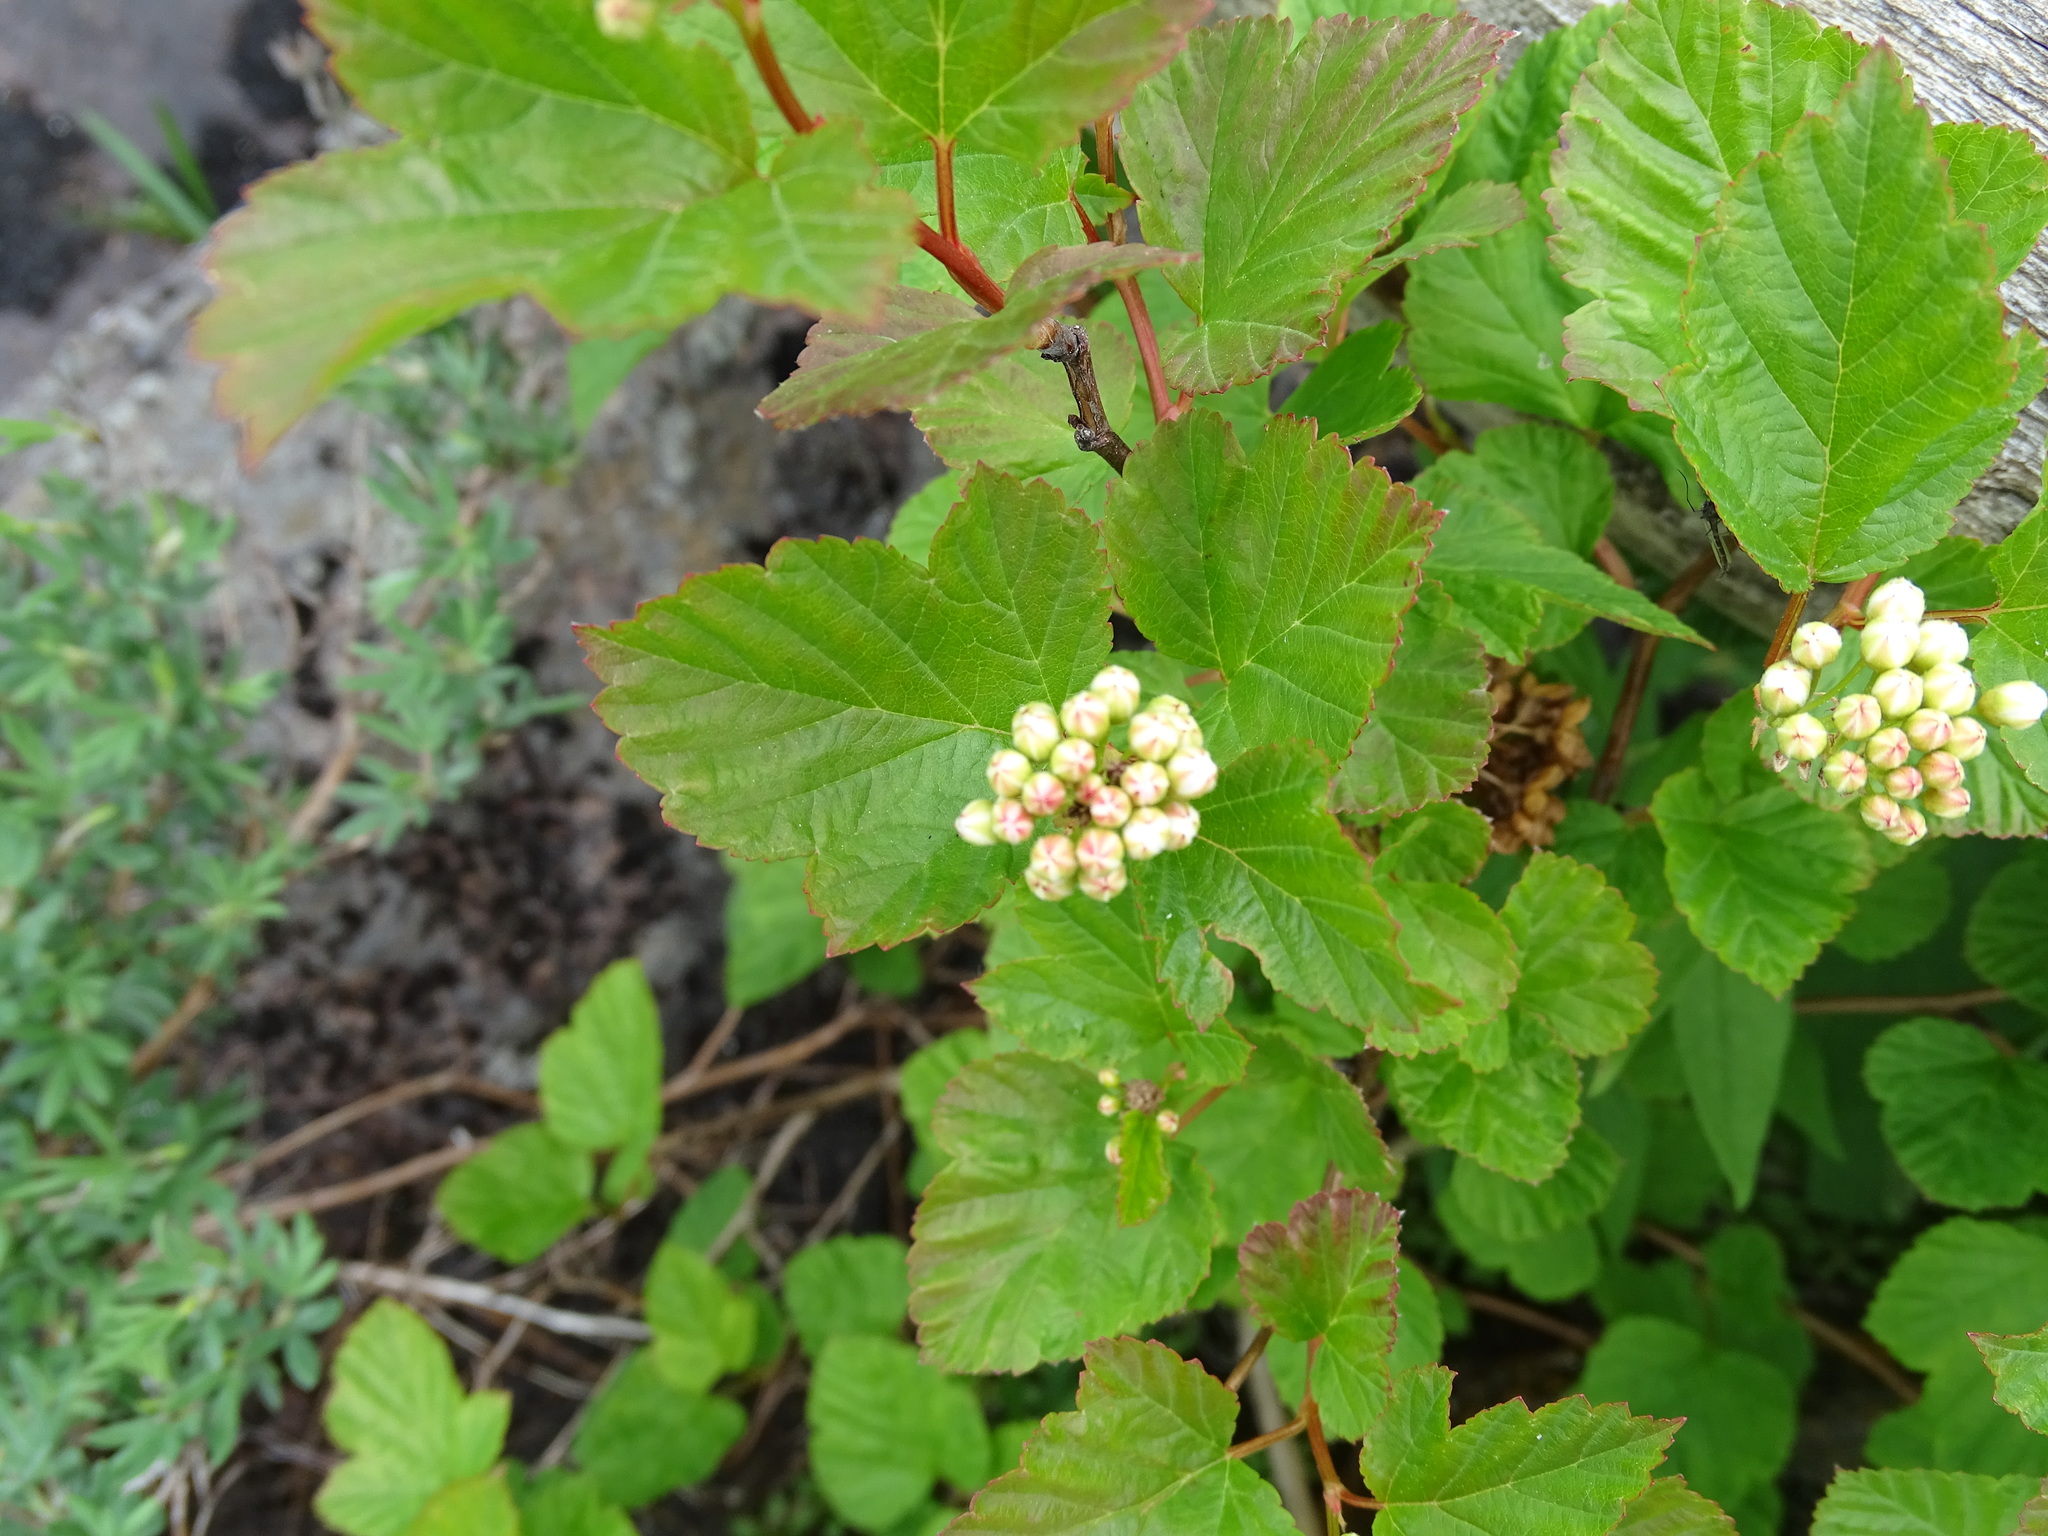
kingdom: Plantae
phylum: Tracheophyta
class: Magnoliopsida
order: Rosales
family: Rosaceae
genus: Physocarpus
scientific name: Physocarpus opulifolius
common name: Ninebark
